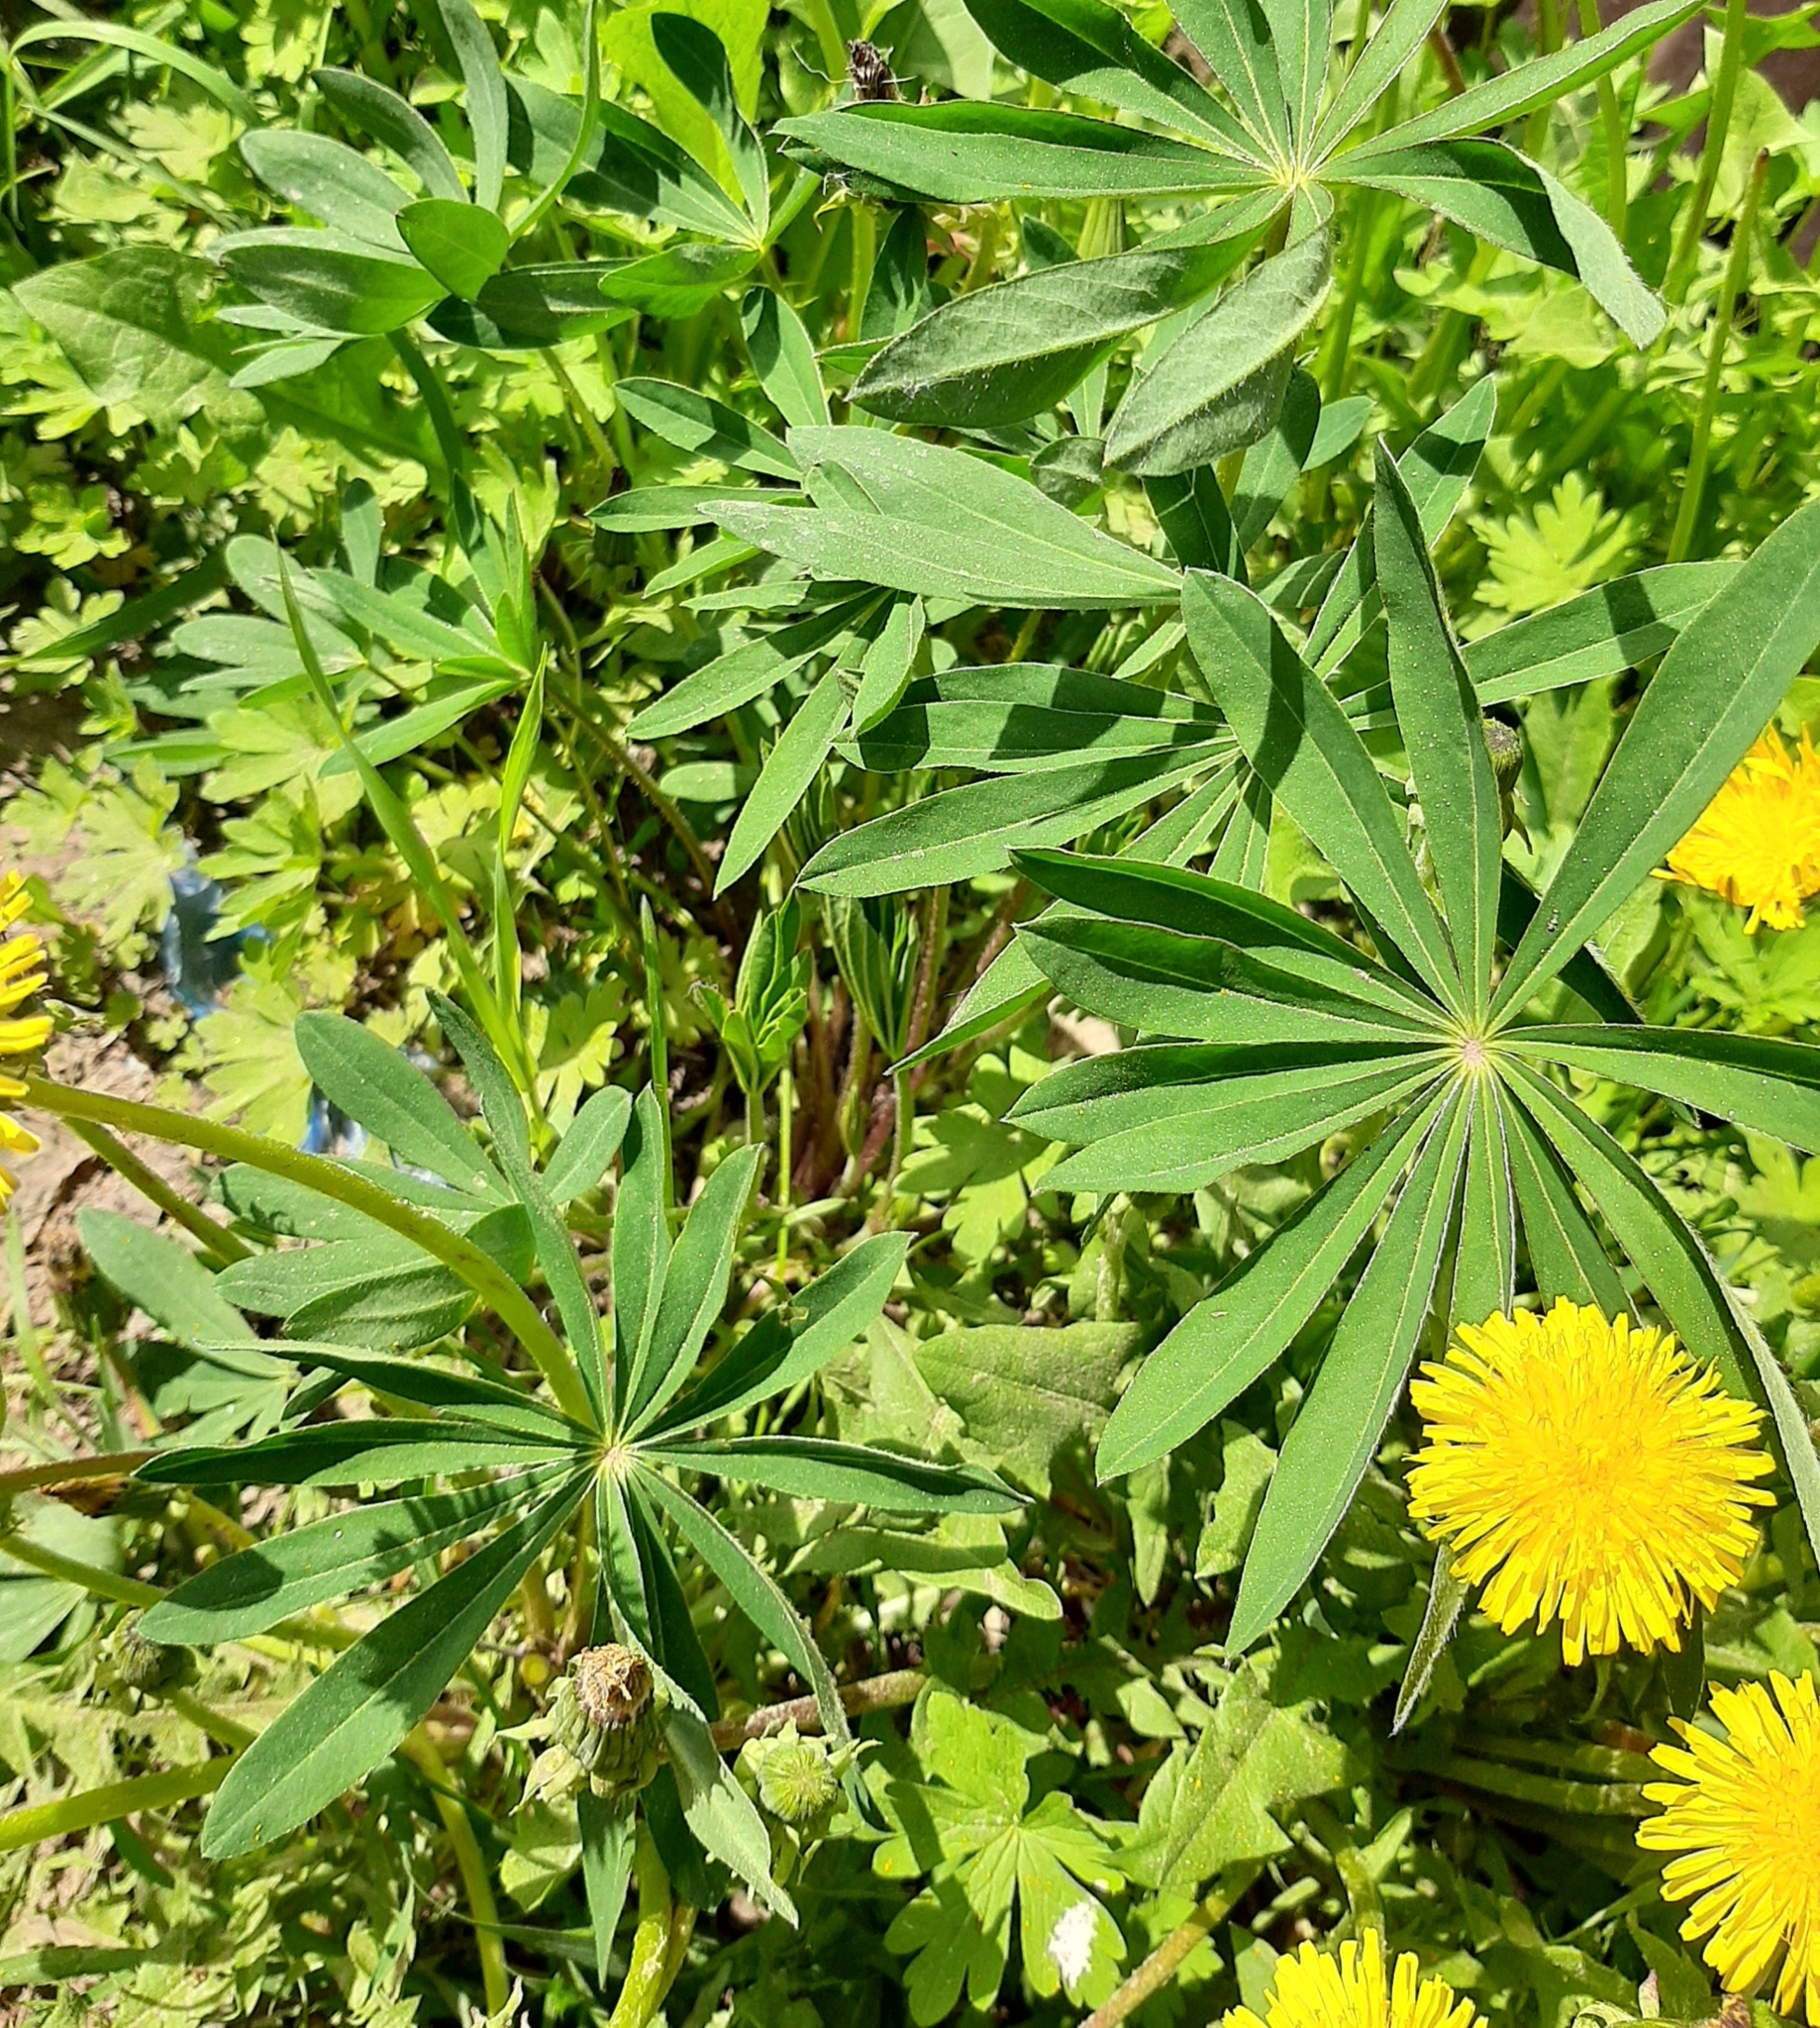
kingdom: Plantae
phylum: Tracheophyta
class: Magnoliopsida
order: Fabales
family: Fabaceae
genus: Lupinus
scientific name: Lupinus polyphyllus
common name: Garden lupin
